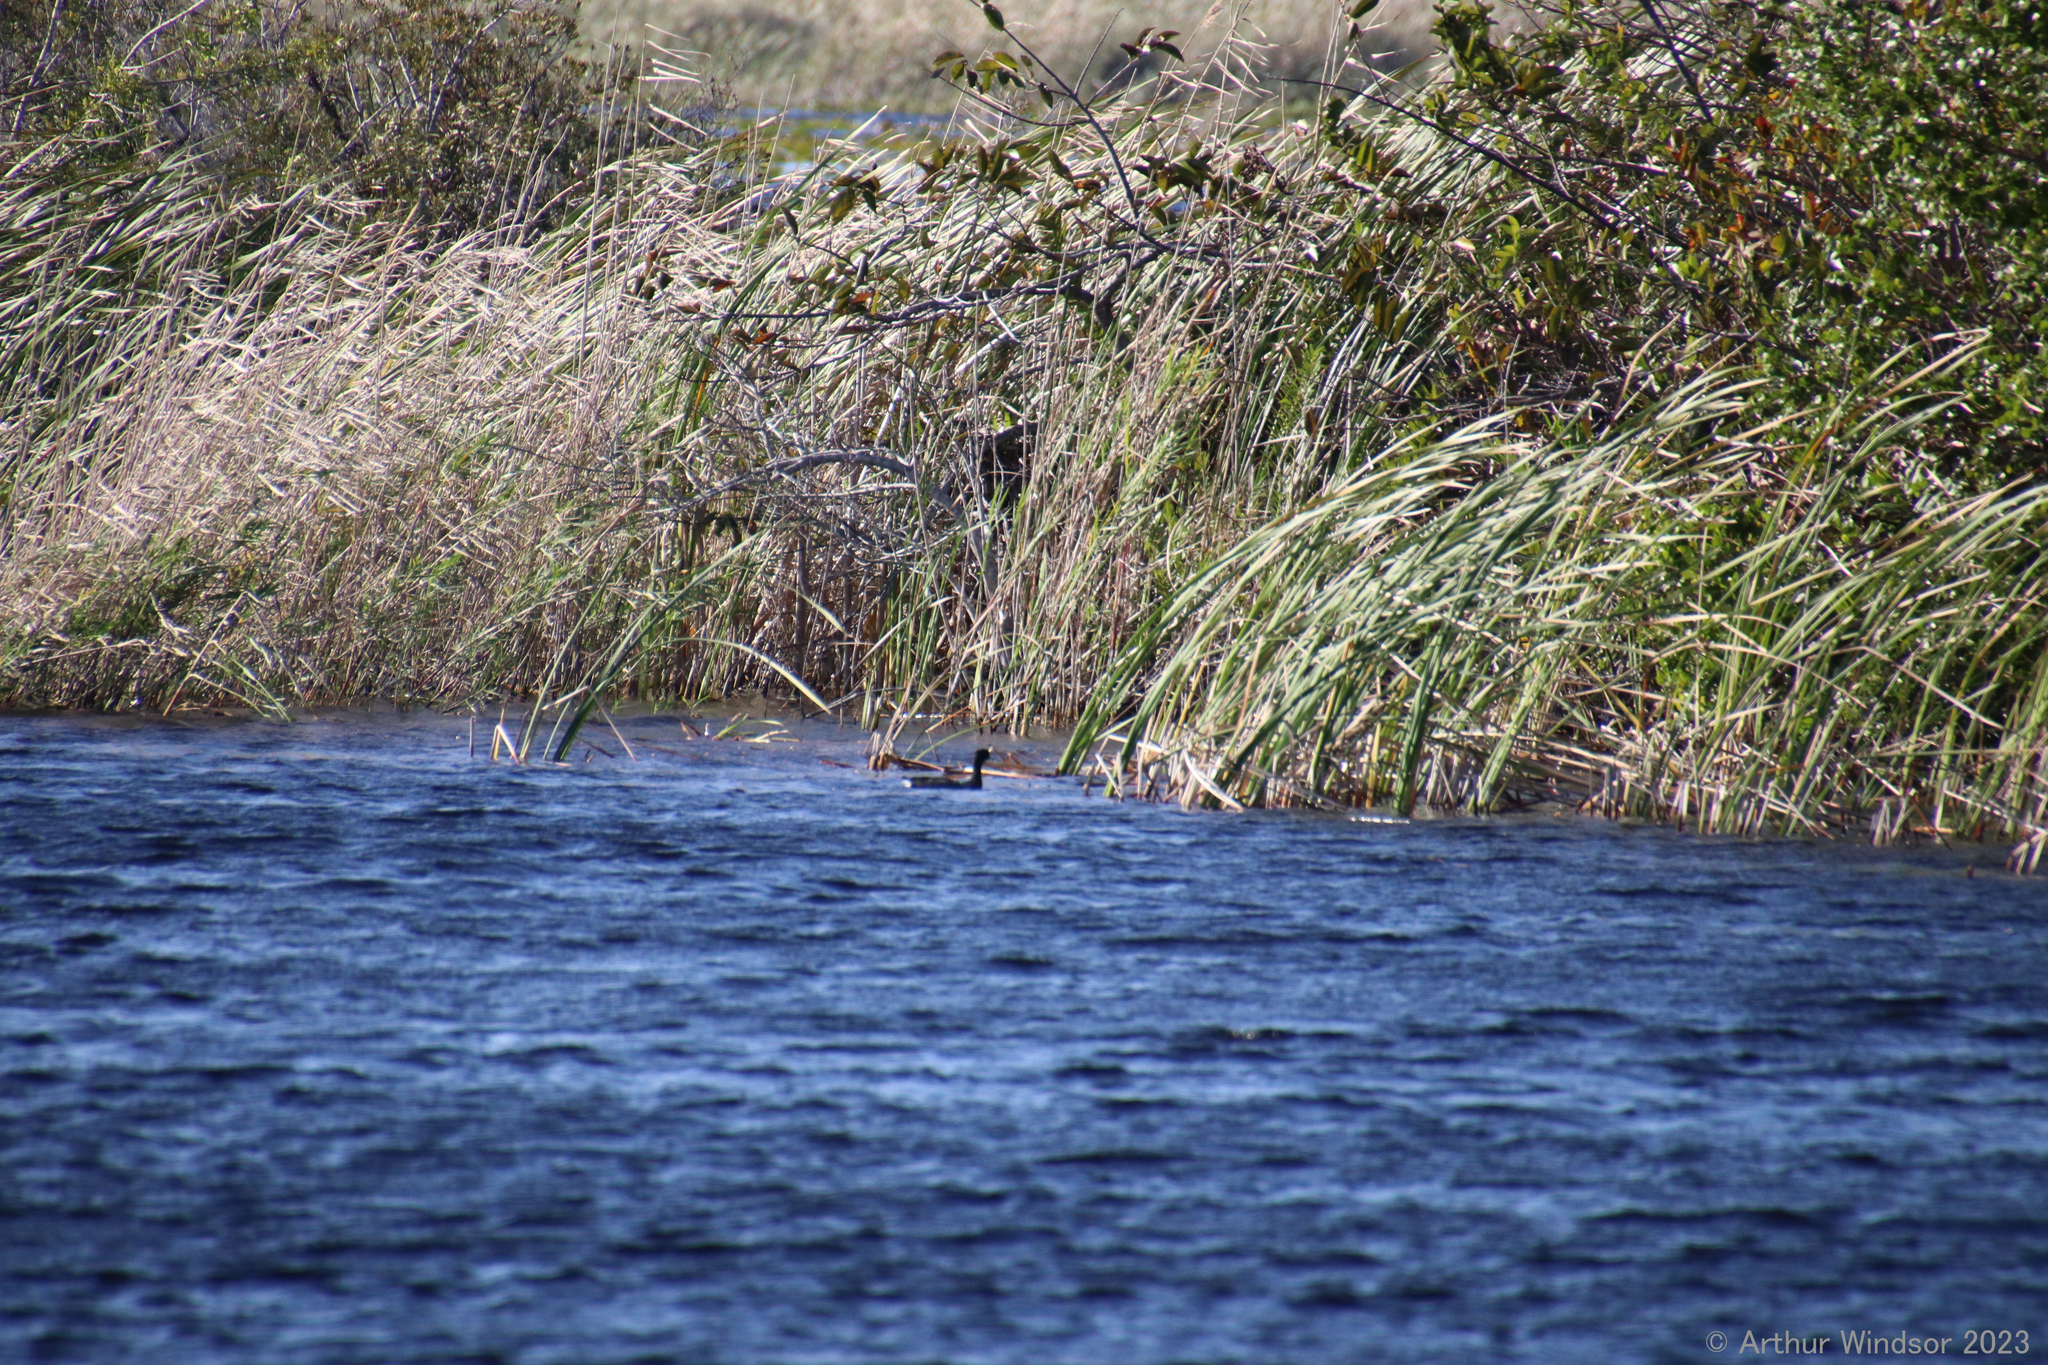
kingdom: Animalia
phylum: Chordata
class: Aves
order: Gruiformes
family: Rallidae
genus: Fulica
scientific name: Fulica americana
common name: American coot
